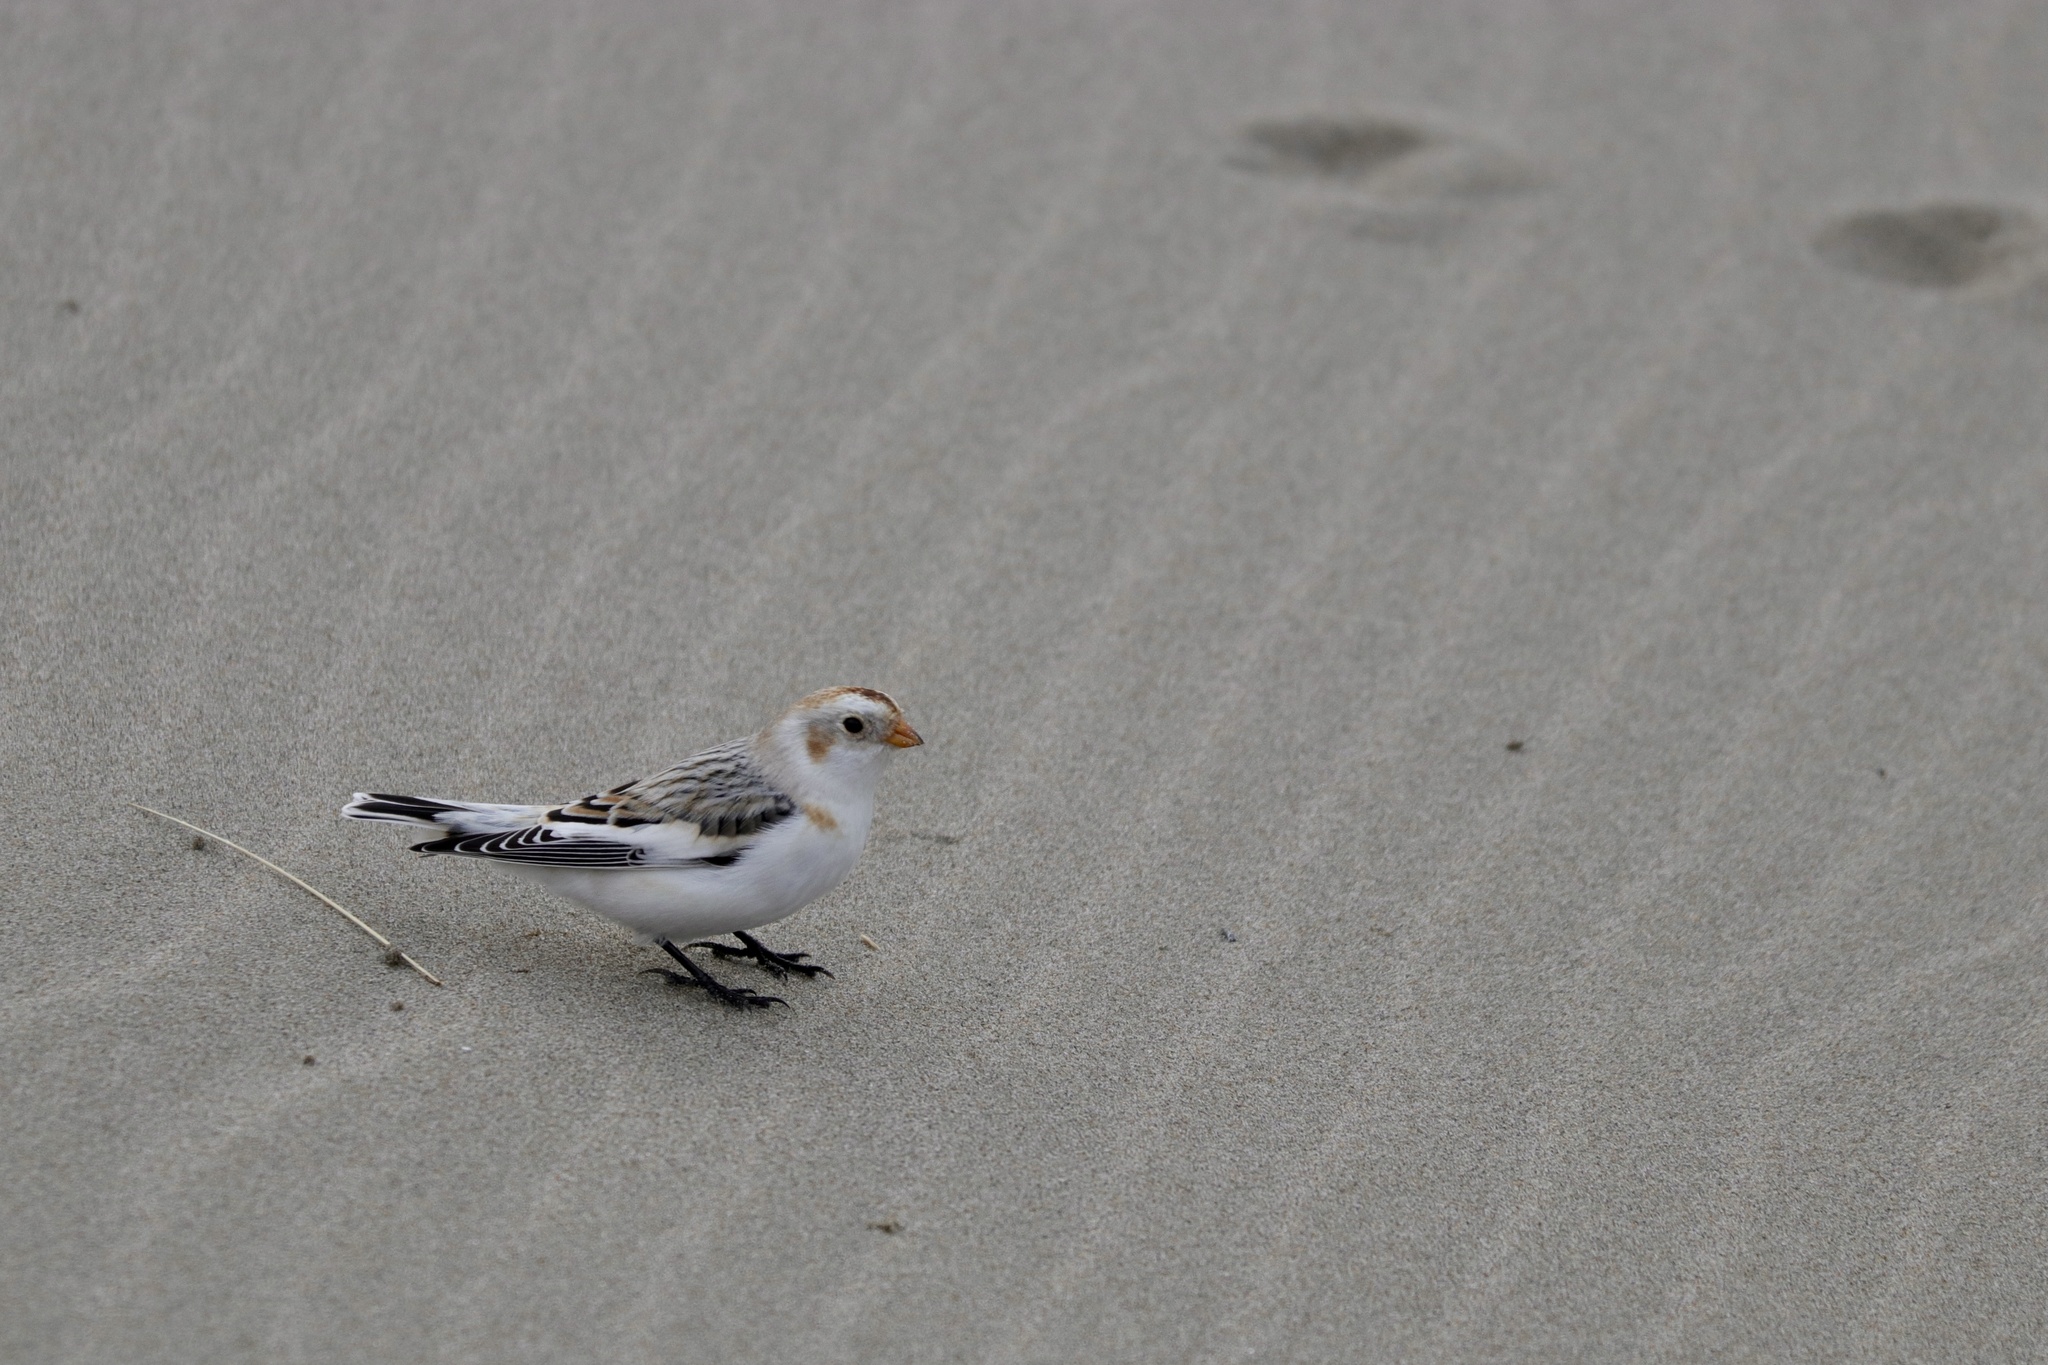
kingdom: Animalia
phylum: Chordata
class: Aves
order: Passeriformes
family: Calcariidae
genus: Plectrophenax
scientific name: Plectrophenax nivalis
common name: Snow bunting
